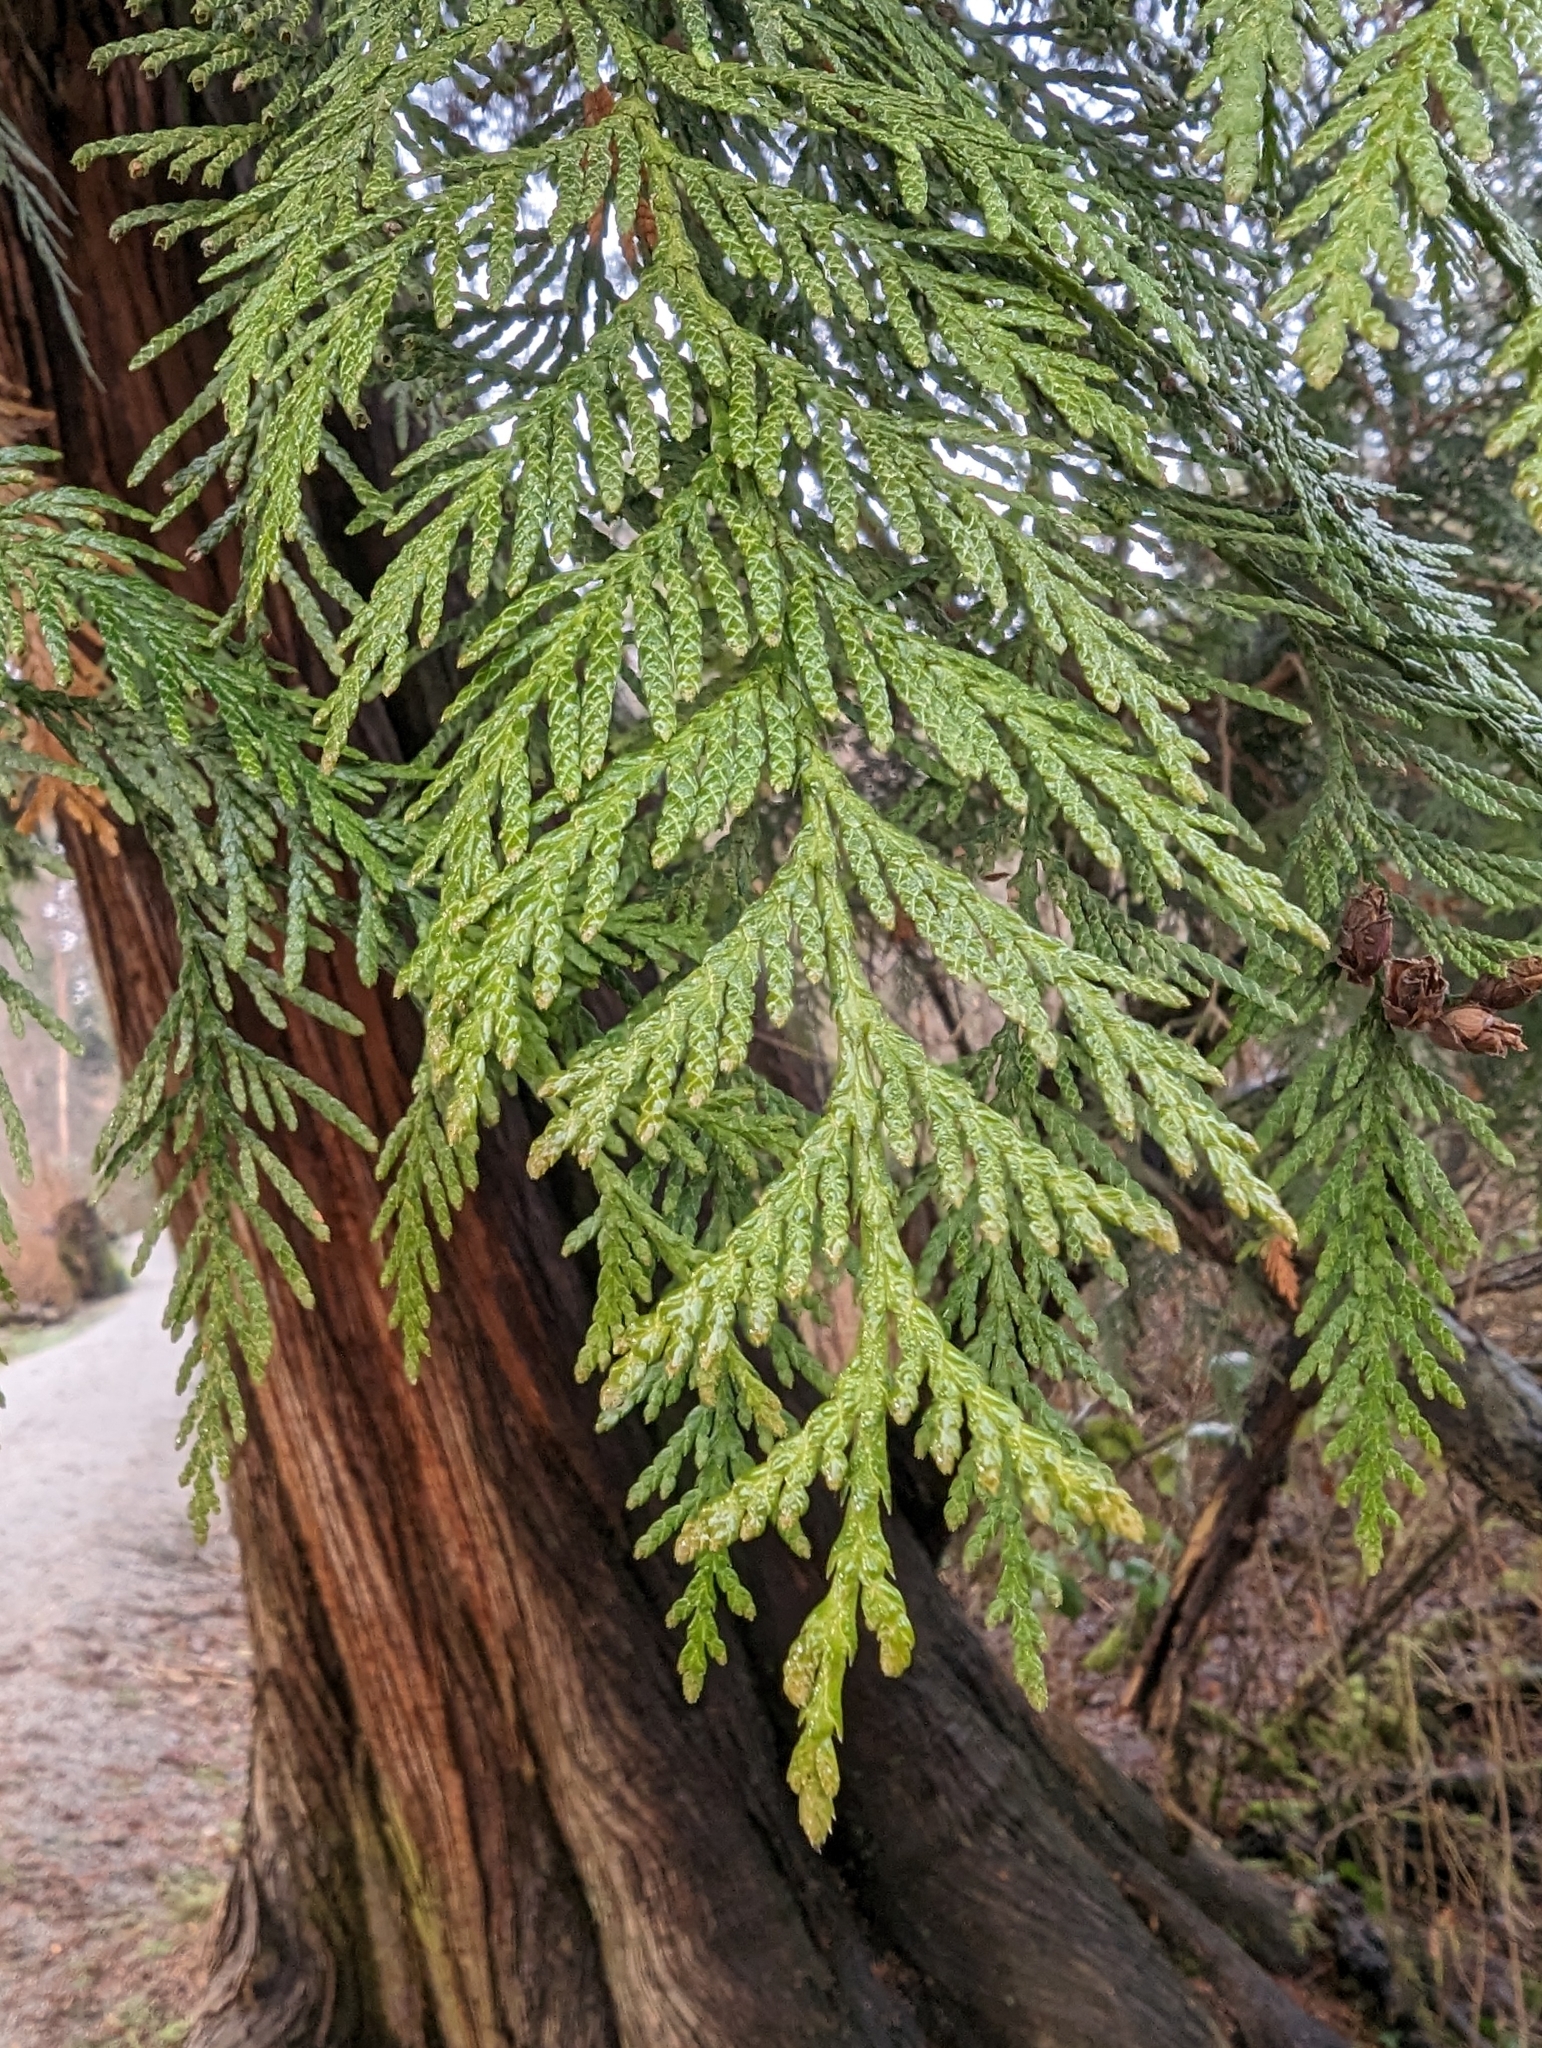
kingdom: Plantae
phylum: Tracheophyta
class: Pinopsida
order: Pinales
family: Cupressaceae
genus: Thuja
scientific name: Thuja plicata
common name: Western red-cedar
